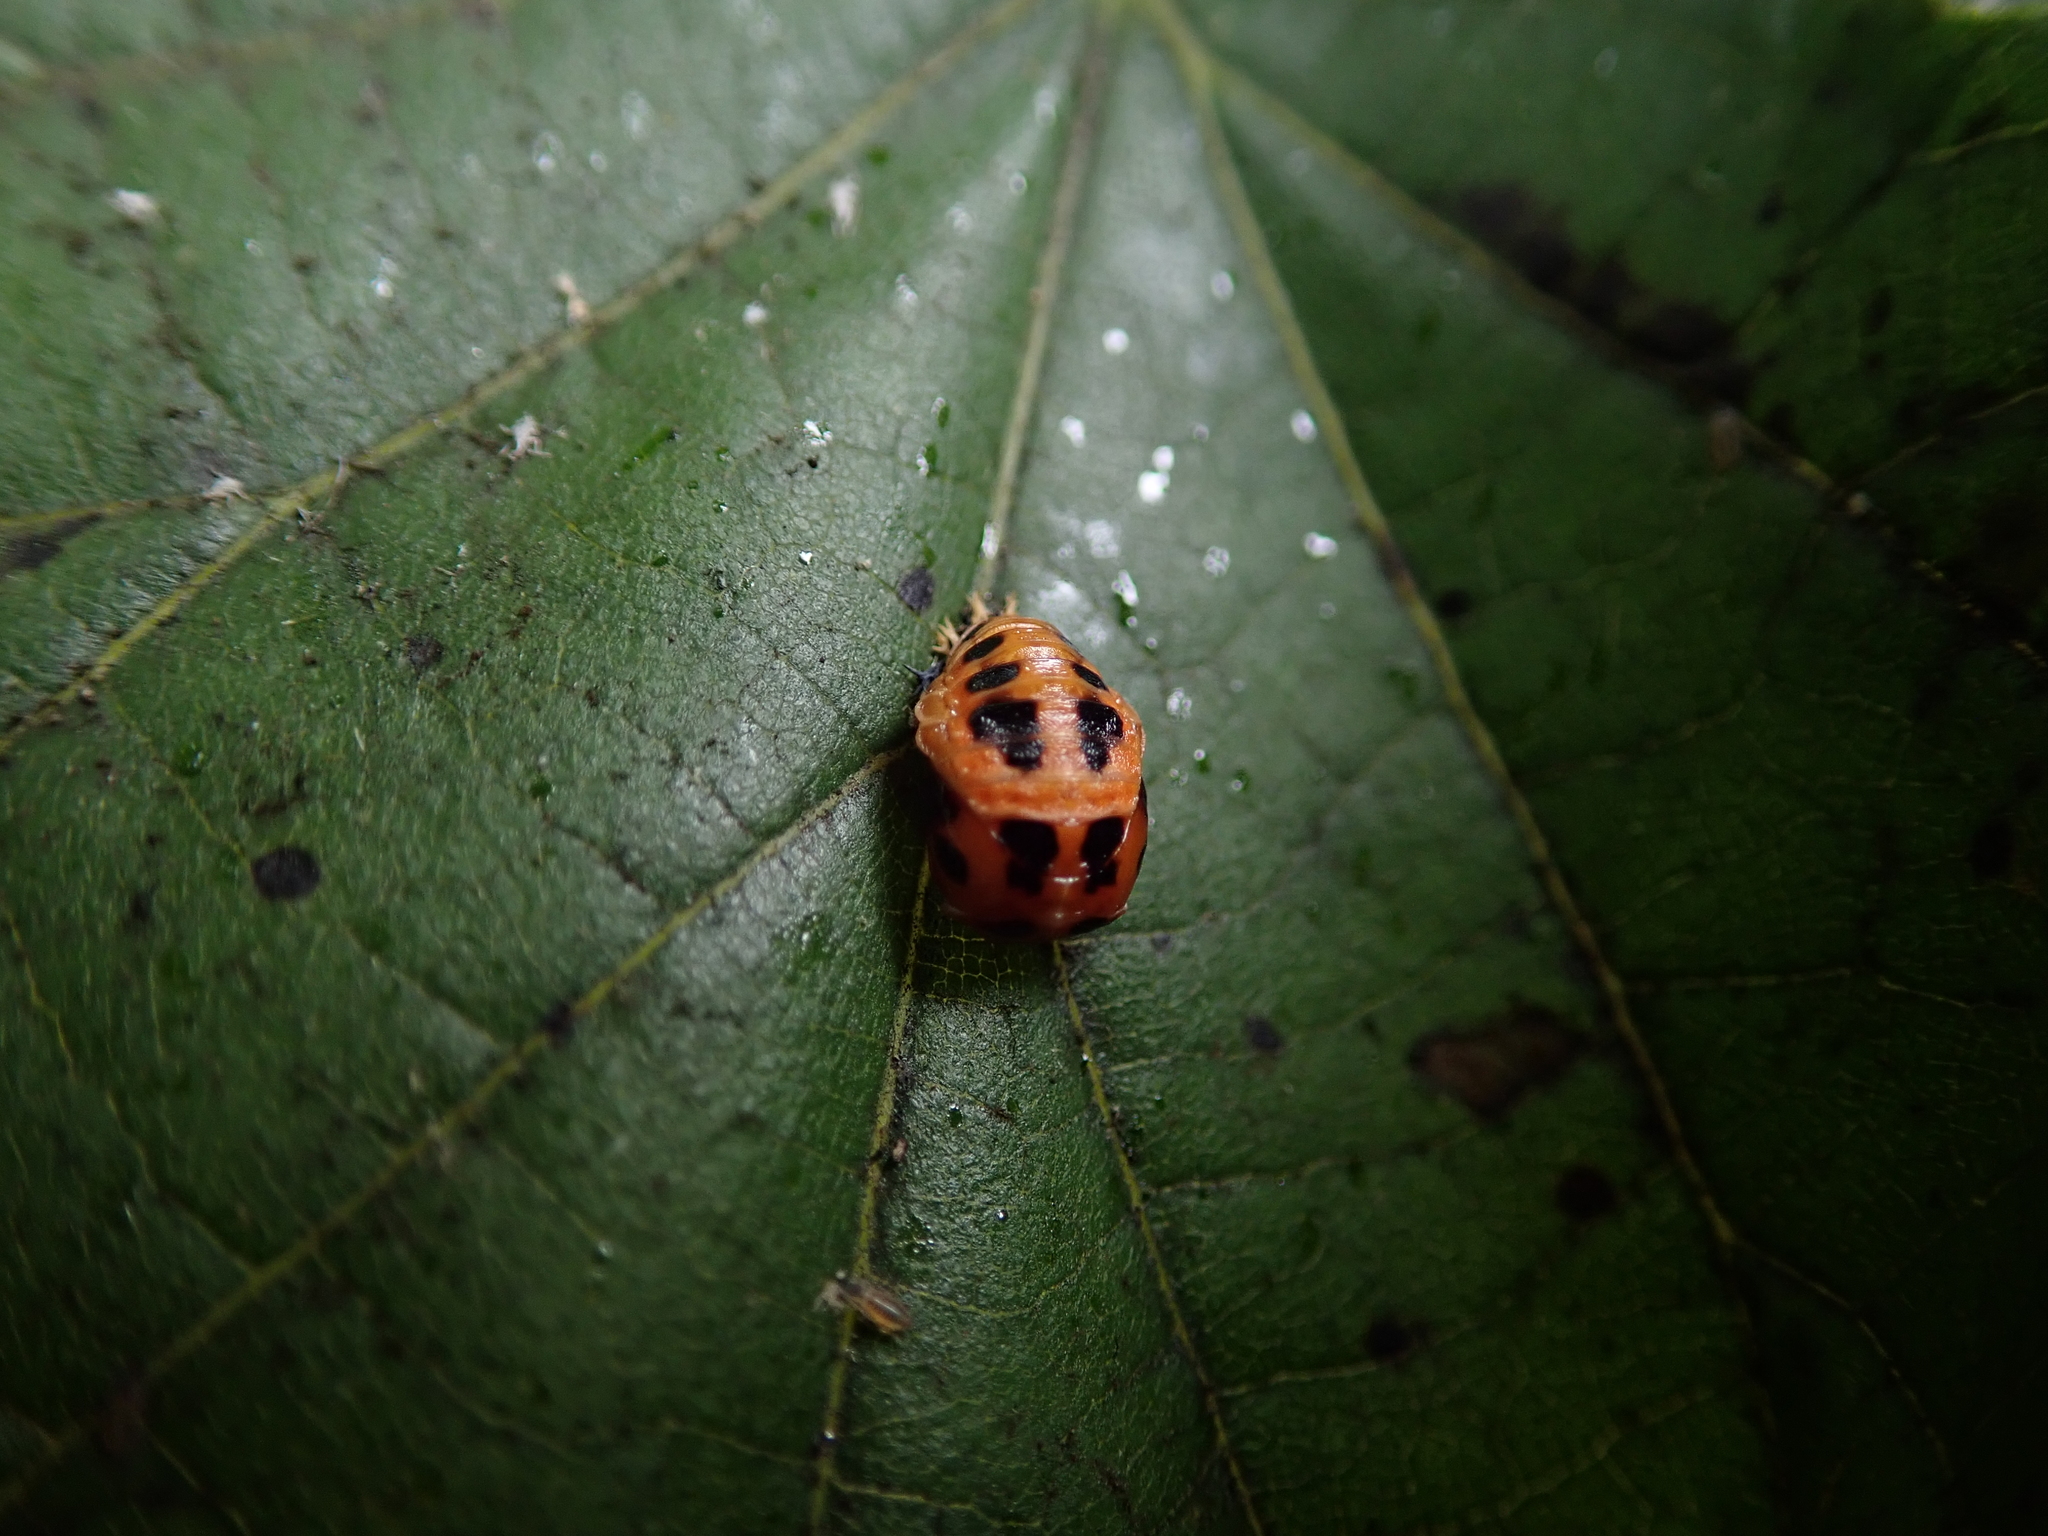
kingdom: Animalia
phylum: Arthropoda
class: Insecta
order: Coleoptera
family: Coccinellidae
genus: Harmonia
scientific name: Harmonia axyridis
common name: Harlequin ladybird
